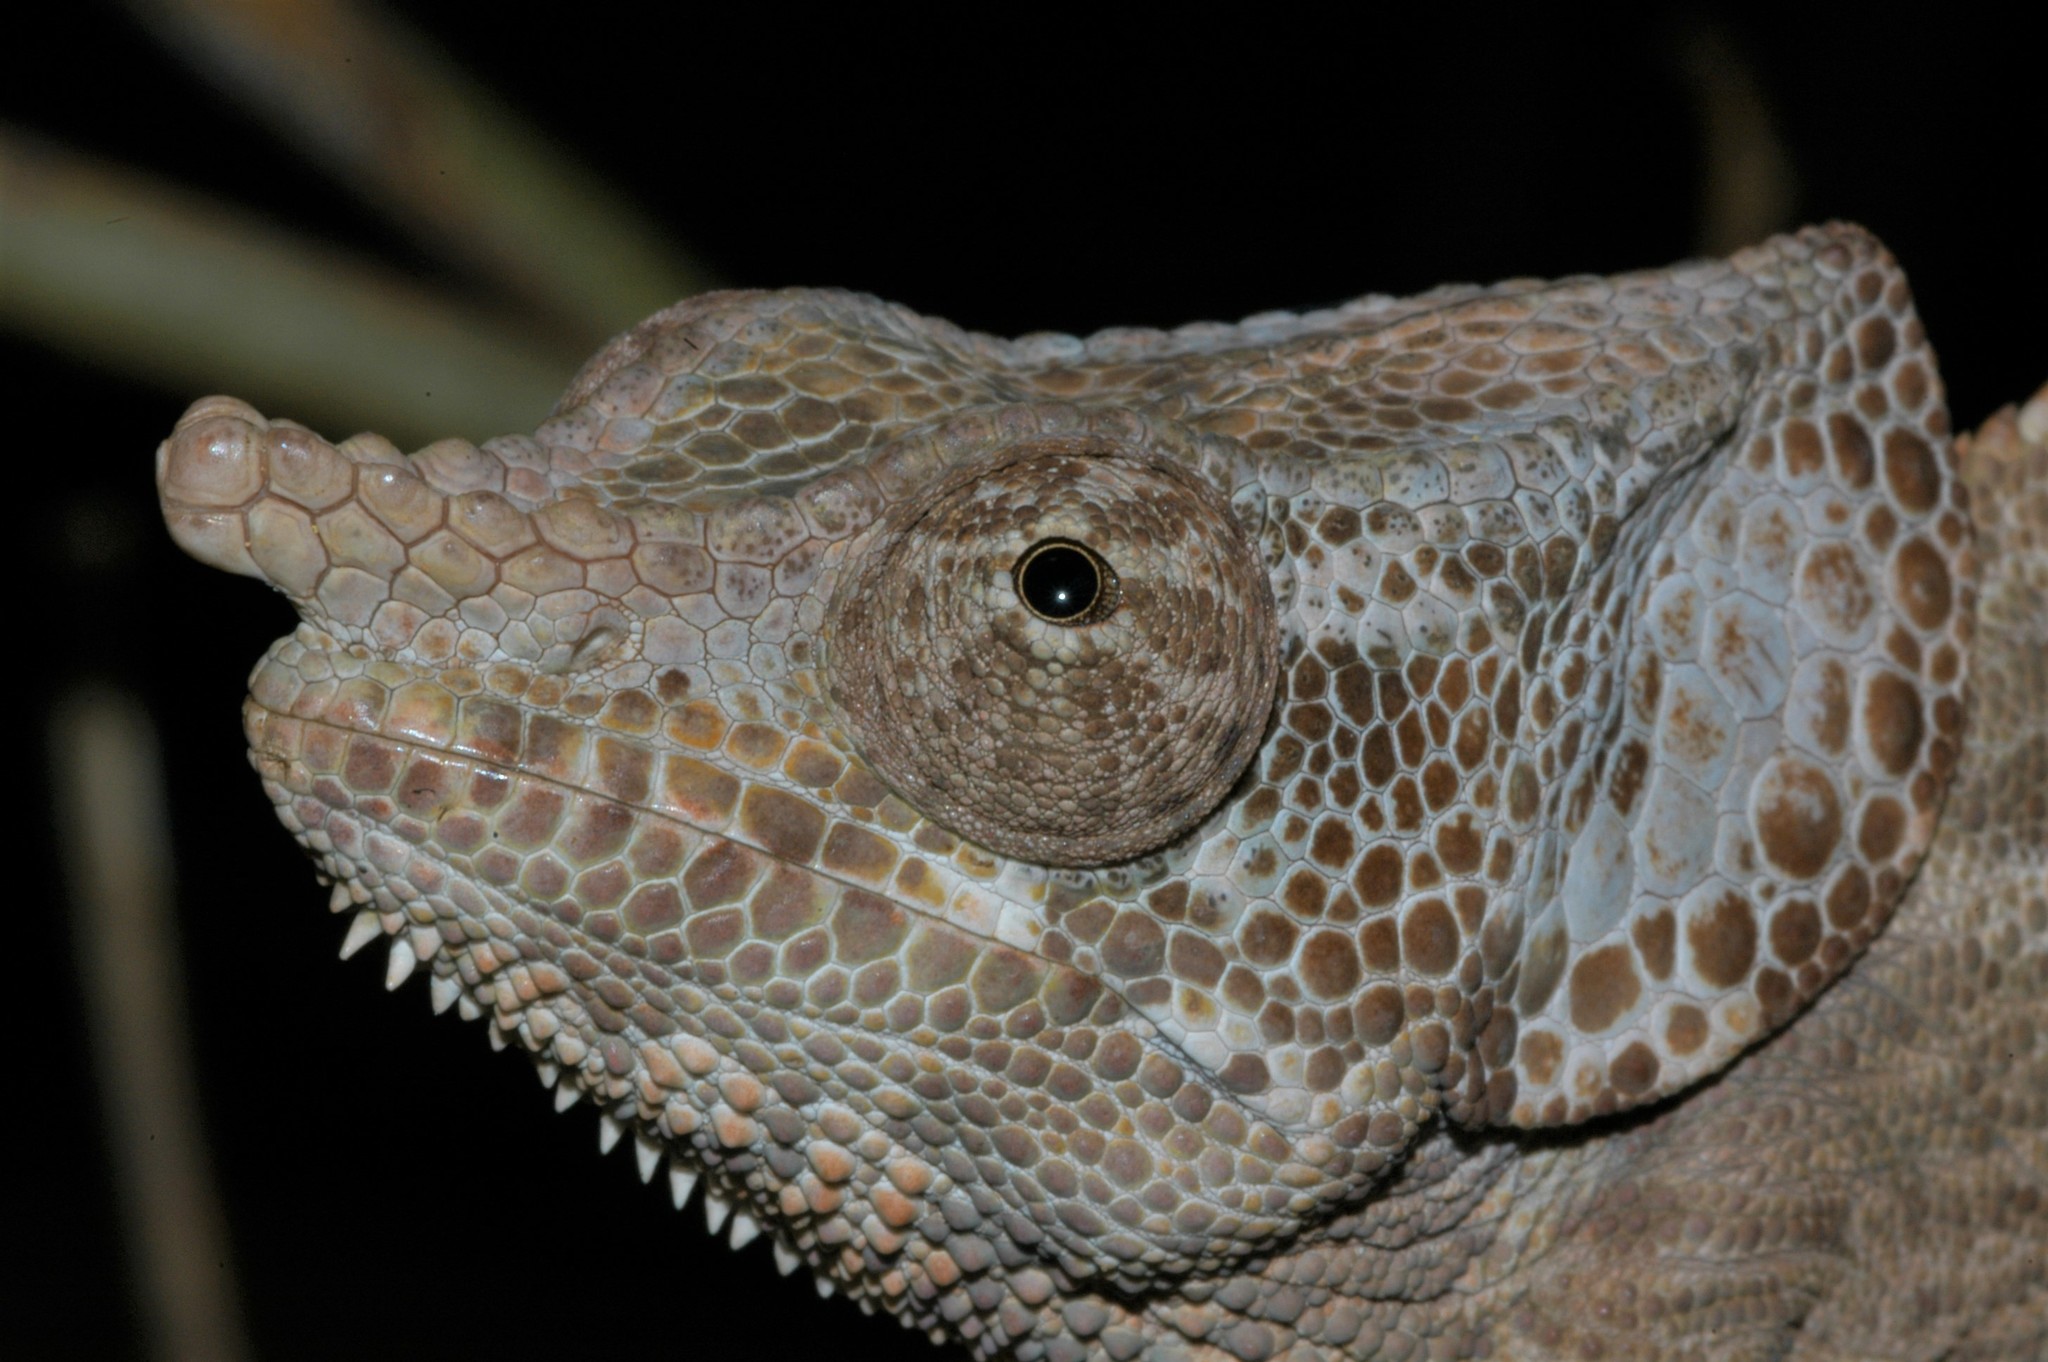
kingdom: Animalia
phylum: Chordata
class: Squamata
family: Chamaeleonidae
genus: Calumma
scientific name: Calumma brevicorne
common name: Short-horned chameleon
